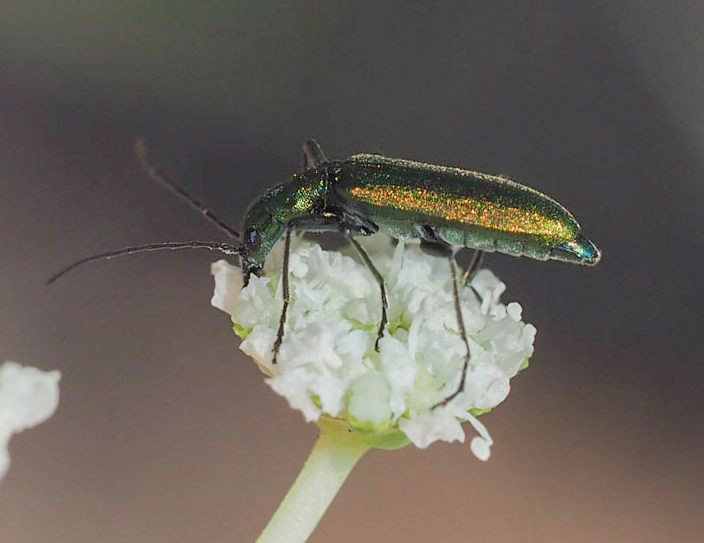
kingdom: Animalia
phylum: Arthropoda
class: Insecta
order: Coleoptera
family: Oedemeridae
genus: Chrysanthia
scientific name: Chrysanthia viridissima
